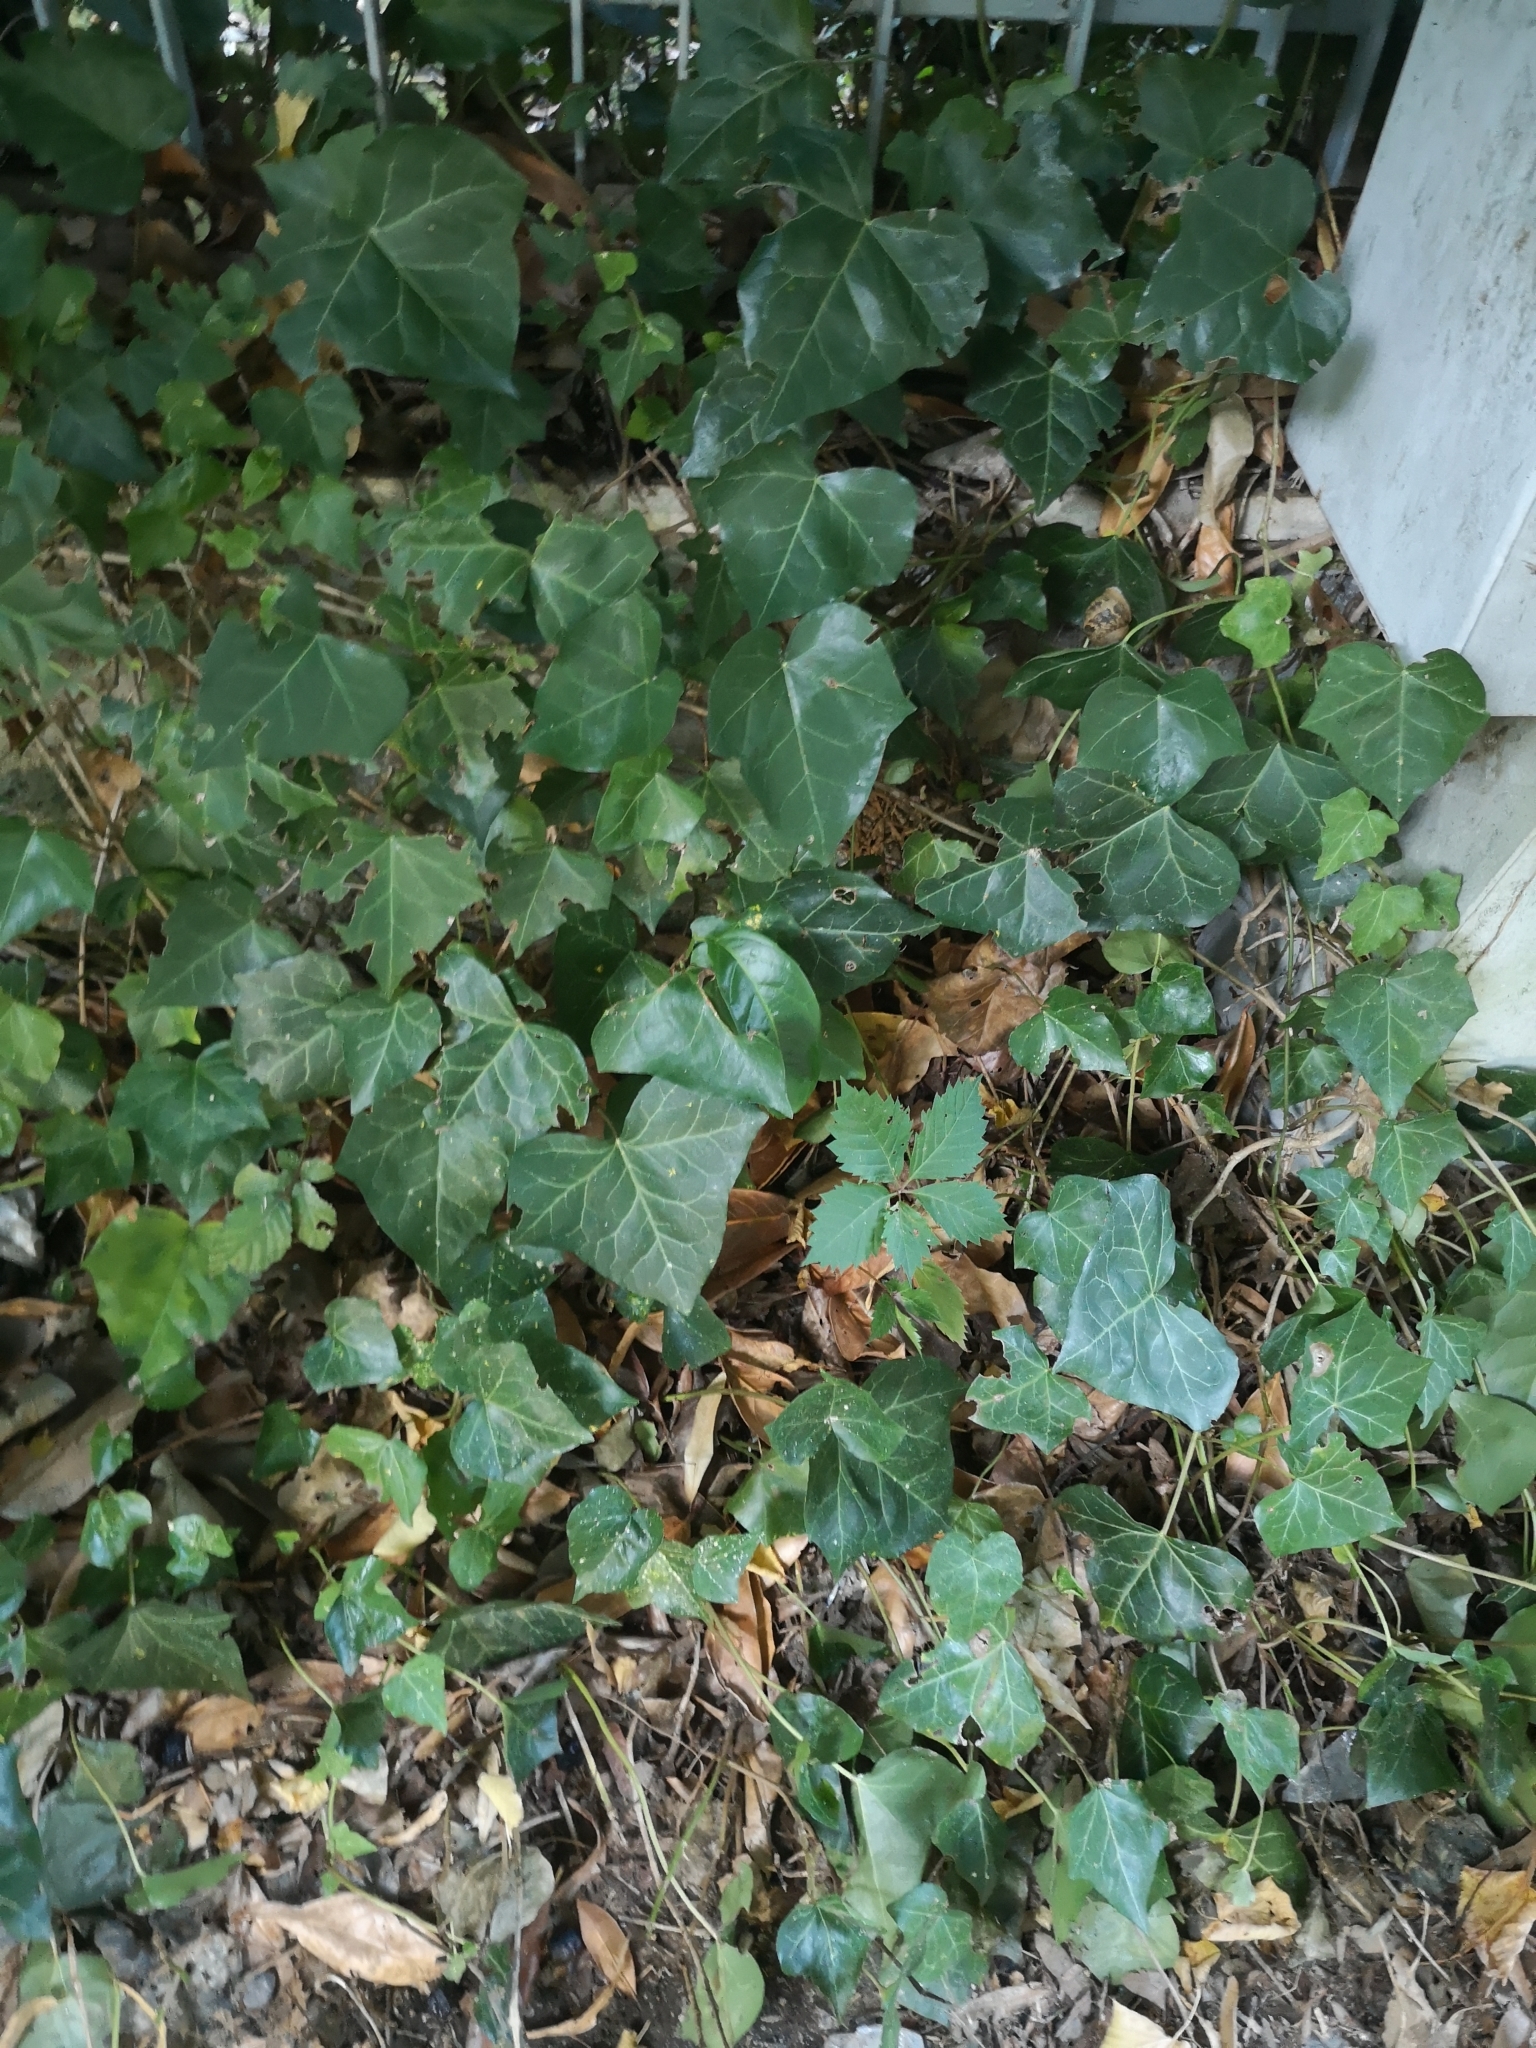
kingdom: Plantae
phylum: Tracheophyta
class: Magnoliopsida
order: Apiales
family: Araliaceae
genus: Hedera
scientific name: Hedera helix
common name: Ivy
